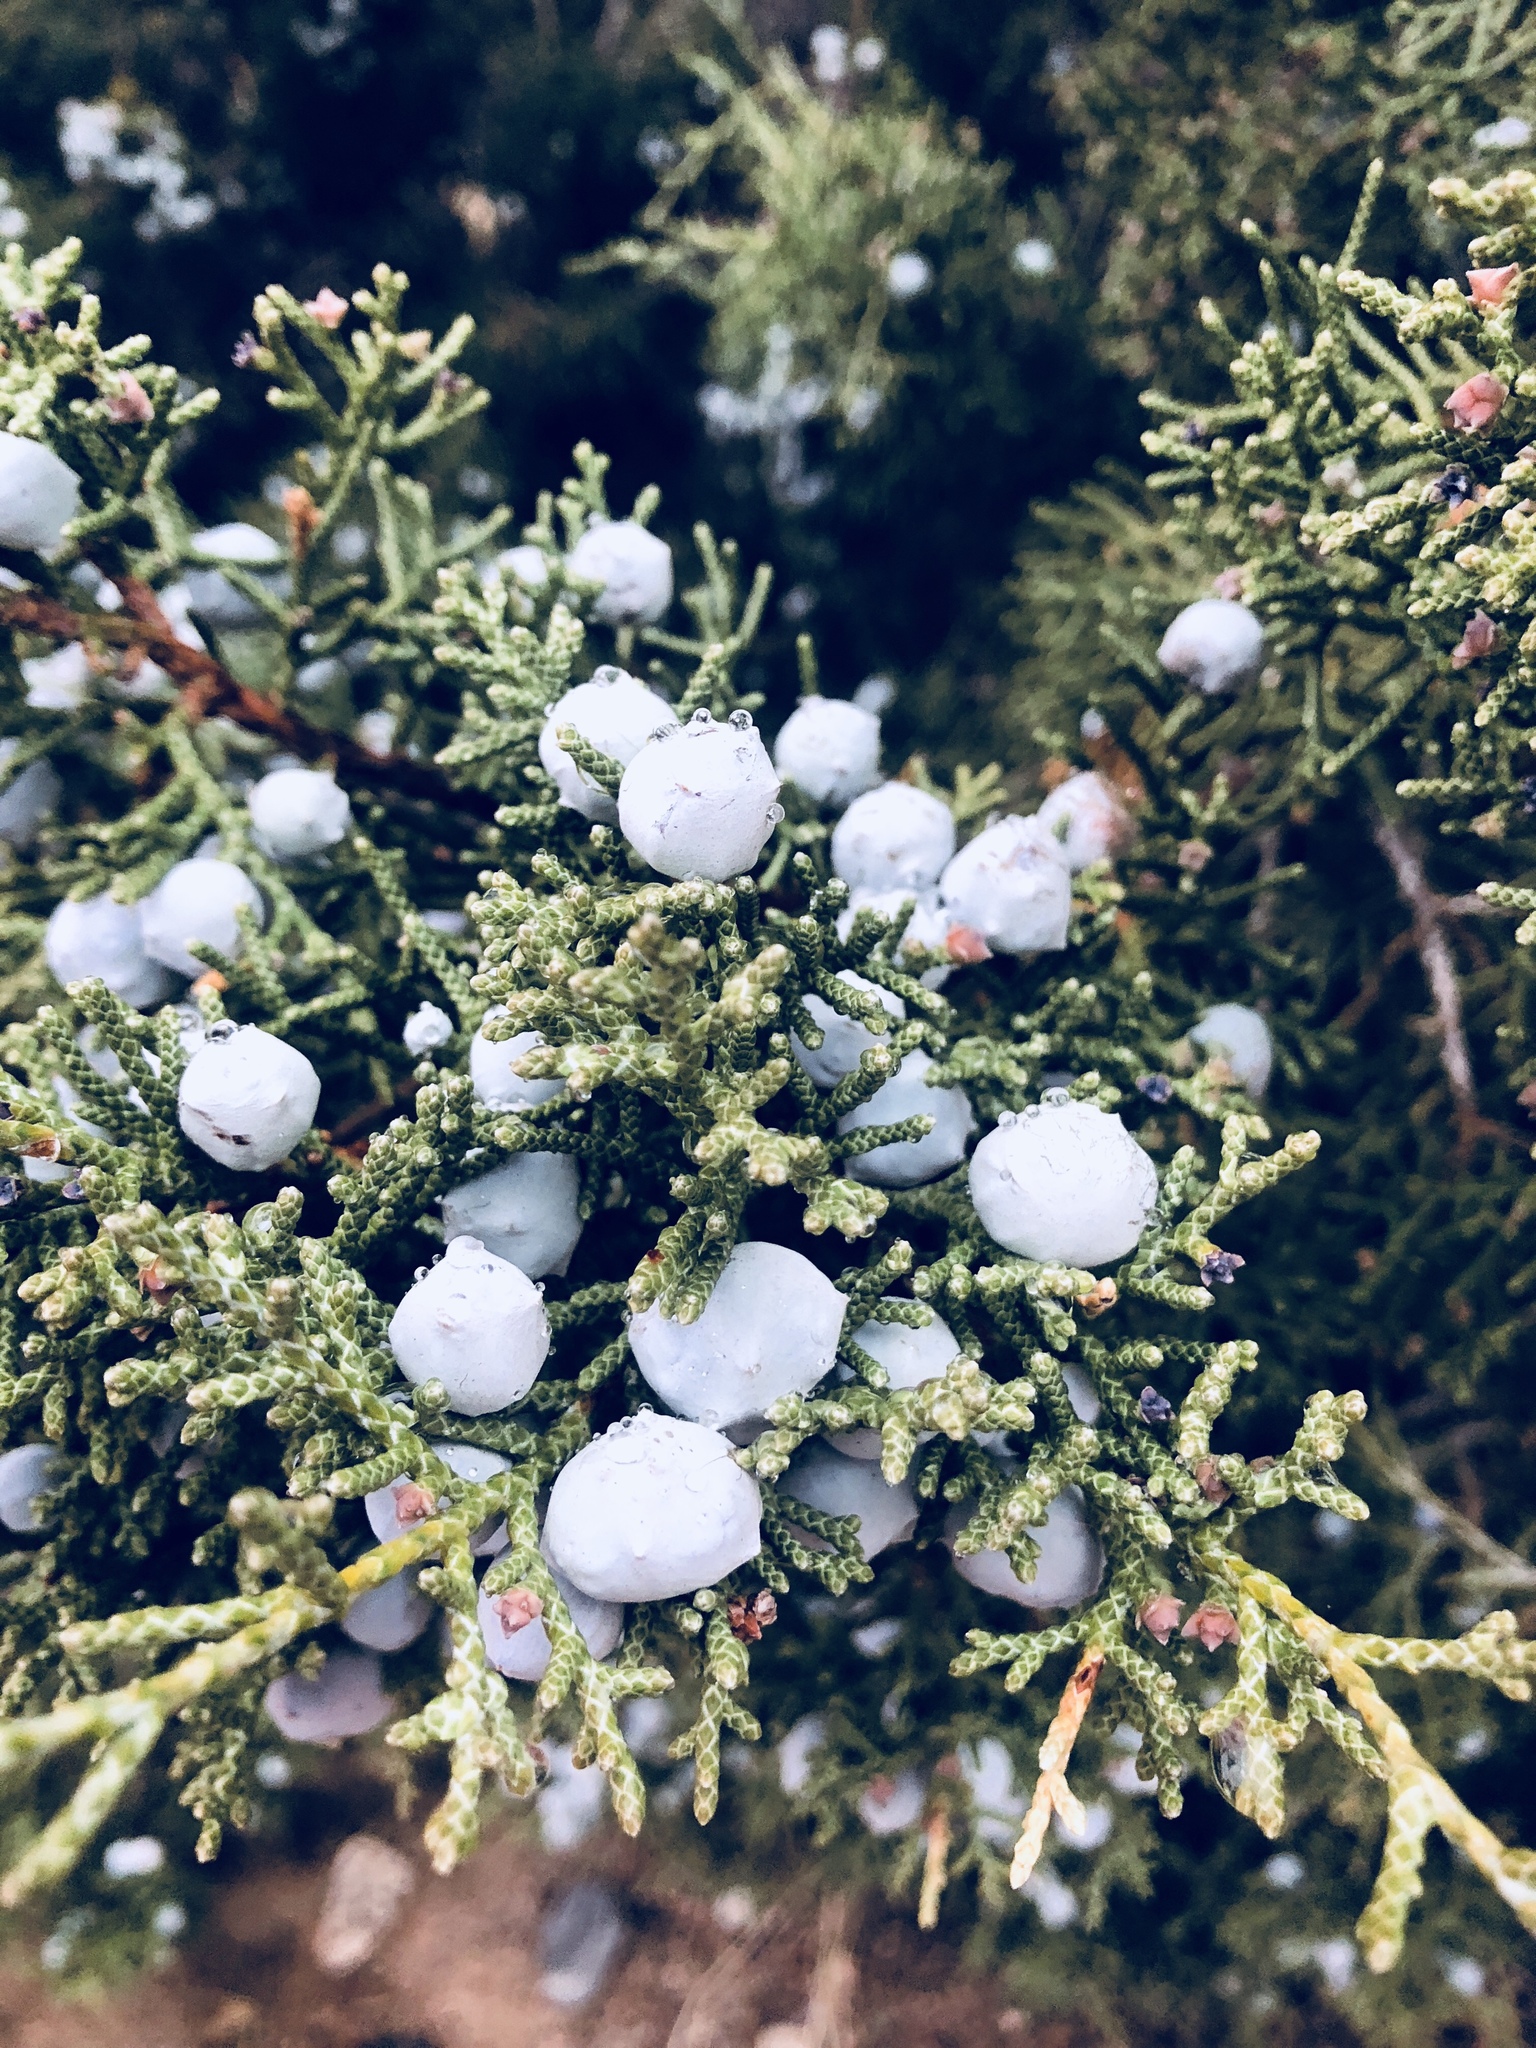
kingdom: Plantae
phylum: Tracheophyta
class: Pinopsida
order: Pinales
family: Cupressaceae
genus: Juniperus
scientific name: Juniperus californica
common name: California juniper
